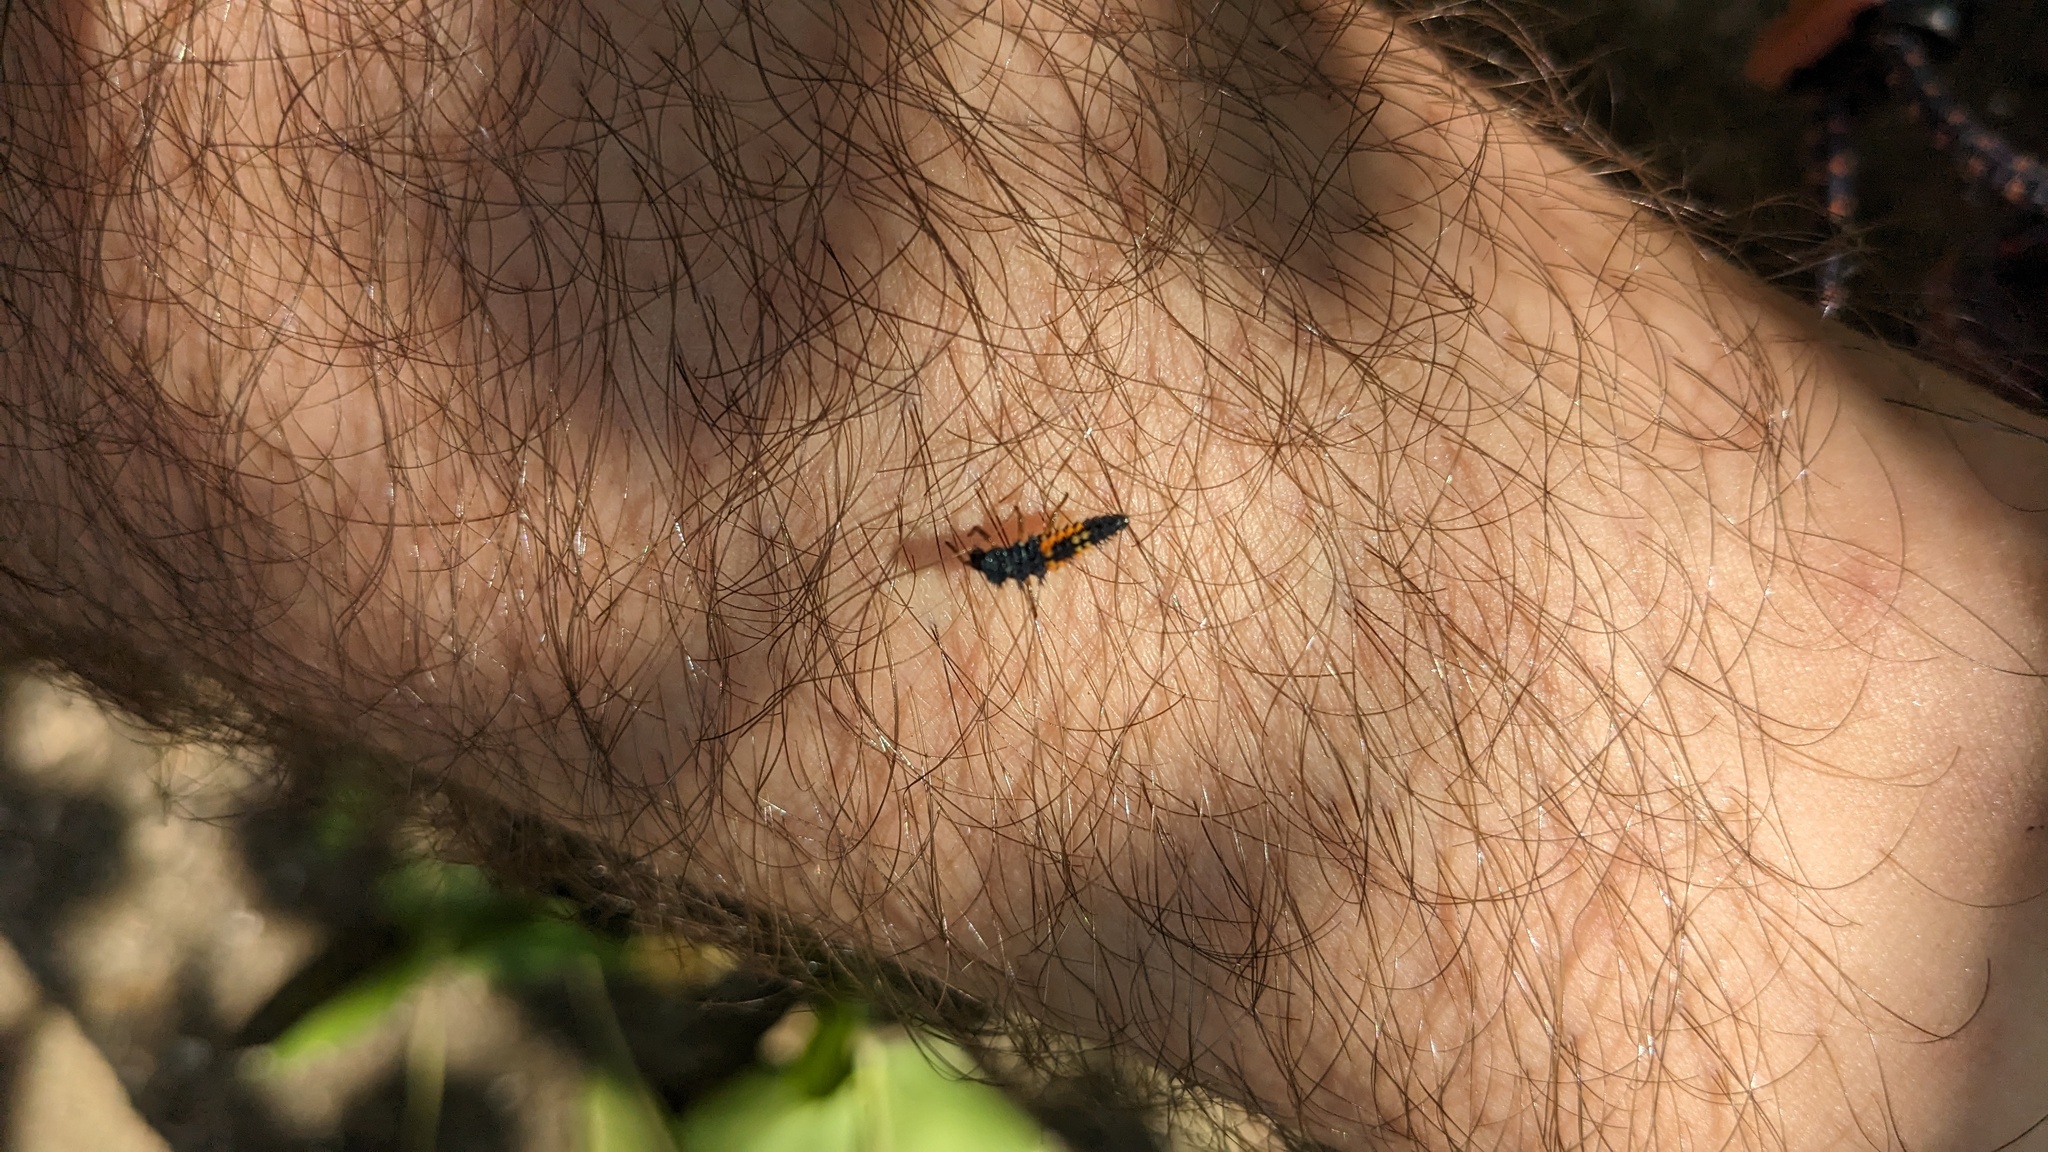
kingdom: Animalia
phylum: Arthropoda
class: Insecta
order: Coleoptera
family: Coccinellidae
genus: Harmonia
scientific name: Harmonia axyridis
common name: Harlequin ladybird
